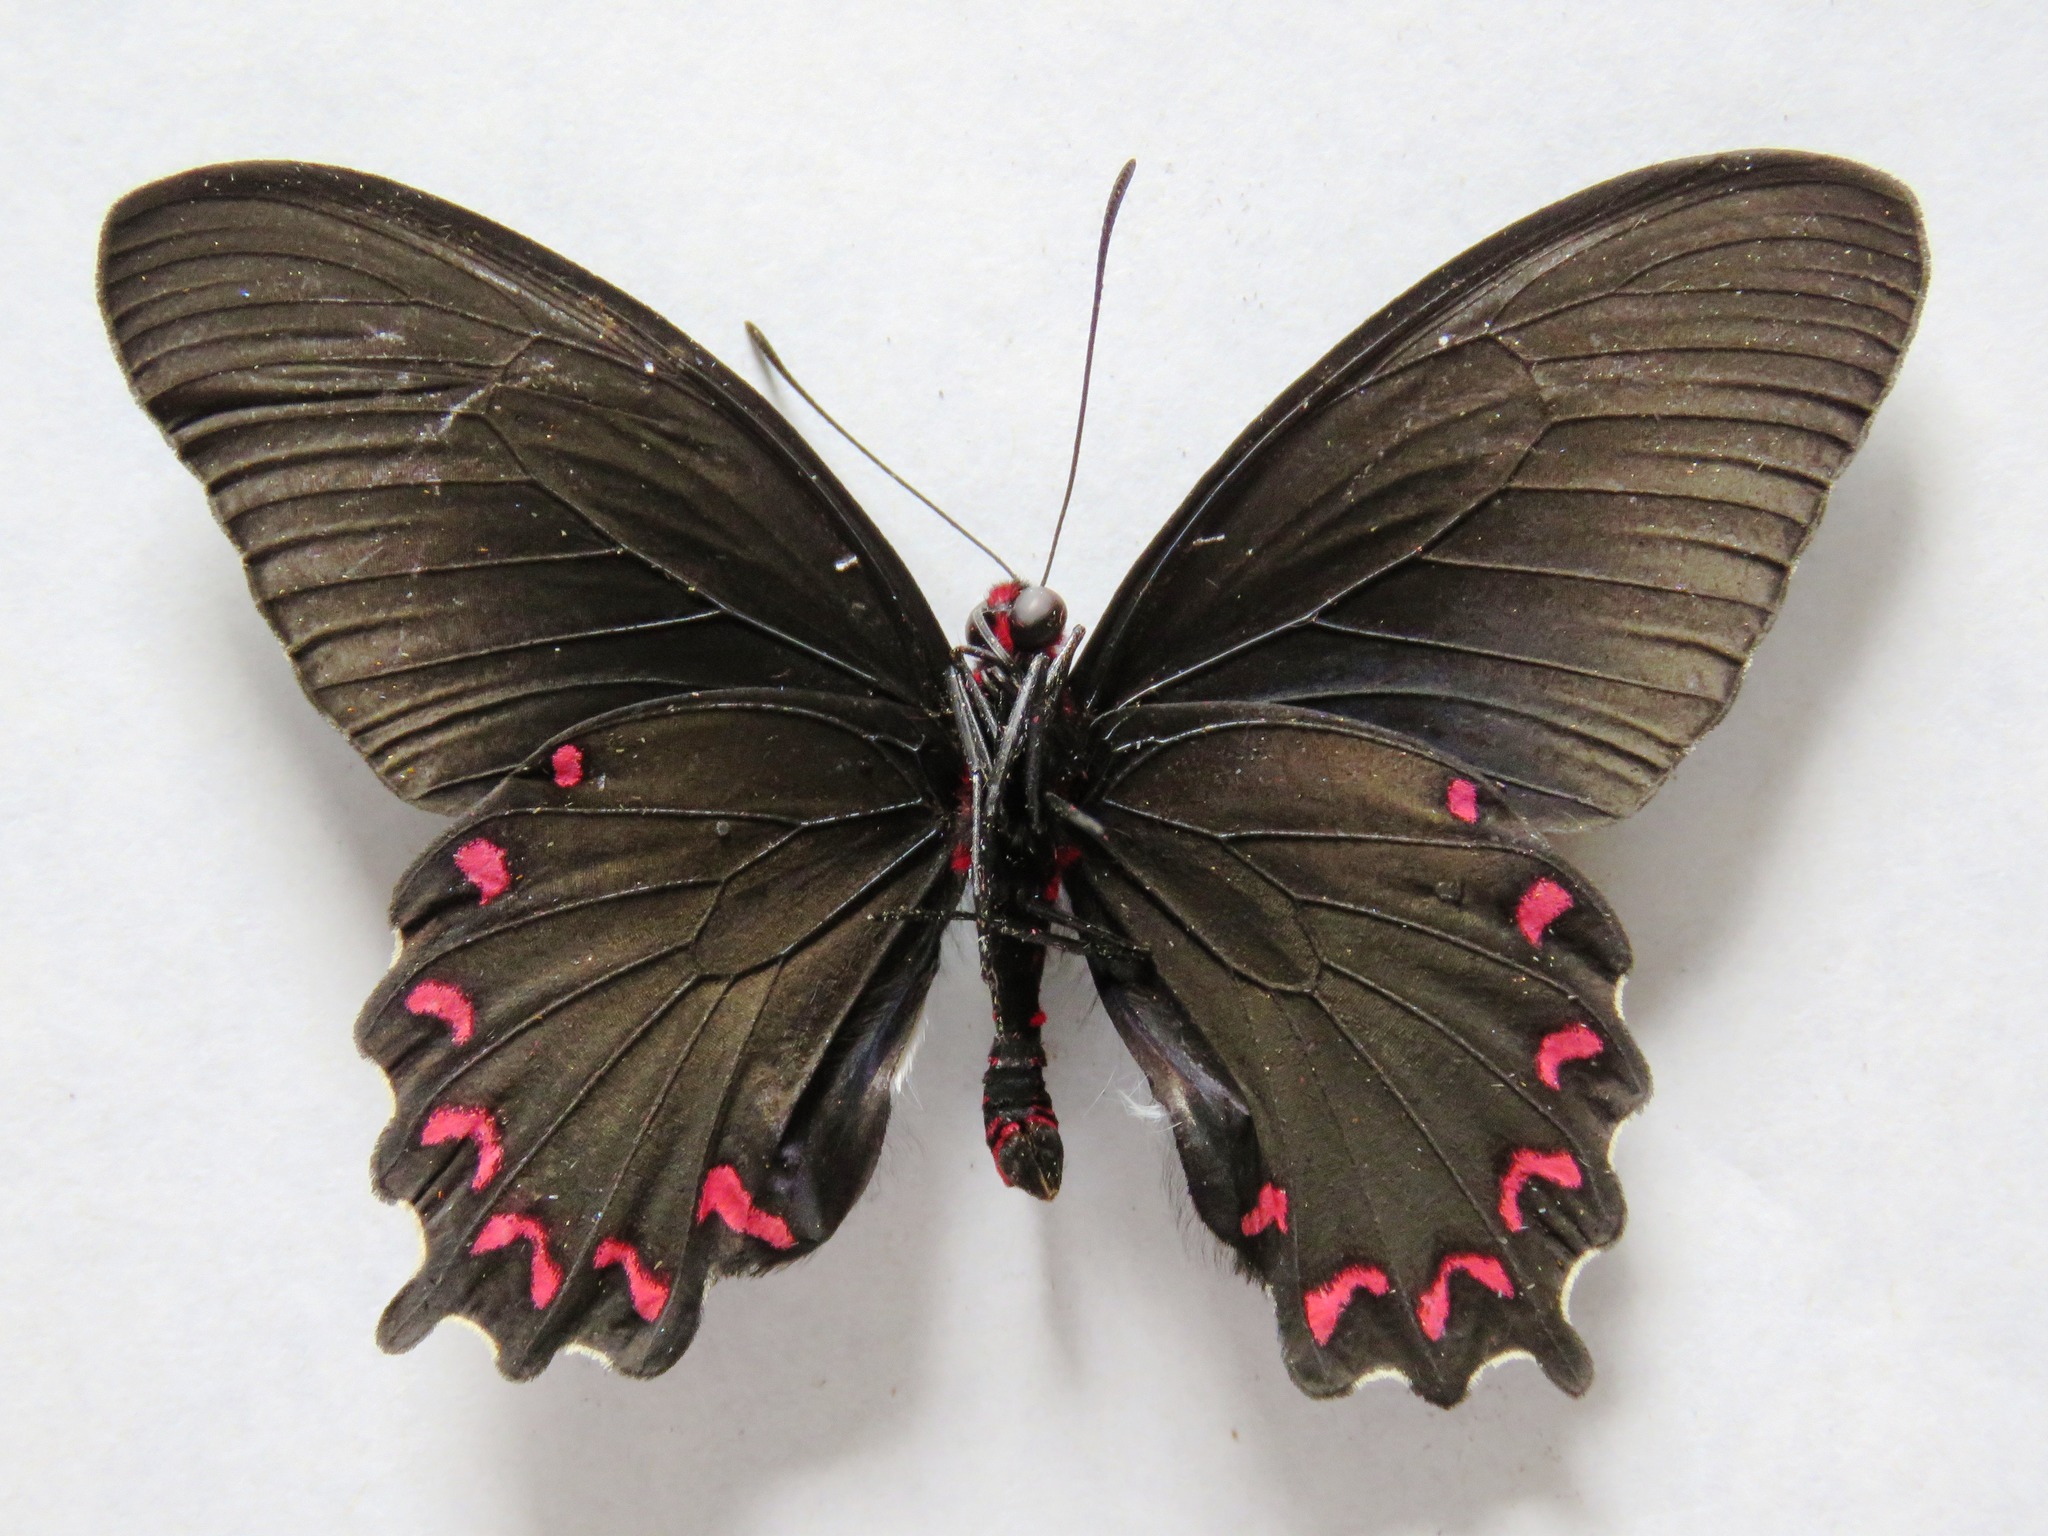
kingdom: Animalia
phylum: Arthropoda
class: Insecta
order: Lepidoptera
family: Papilionidae
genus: Parides
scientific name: Parides montezuma
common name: Montezuma's cattleheart
